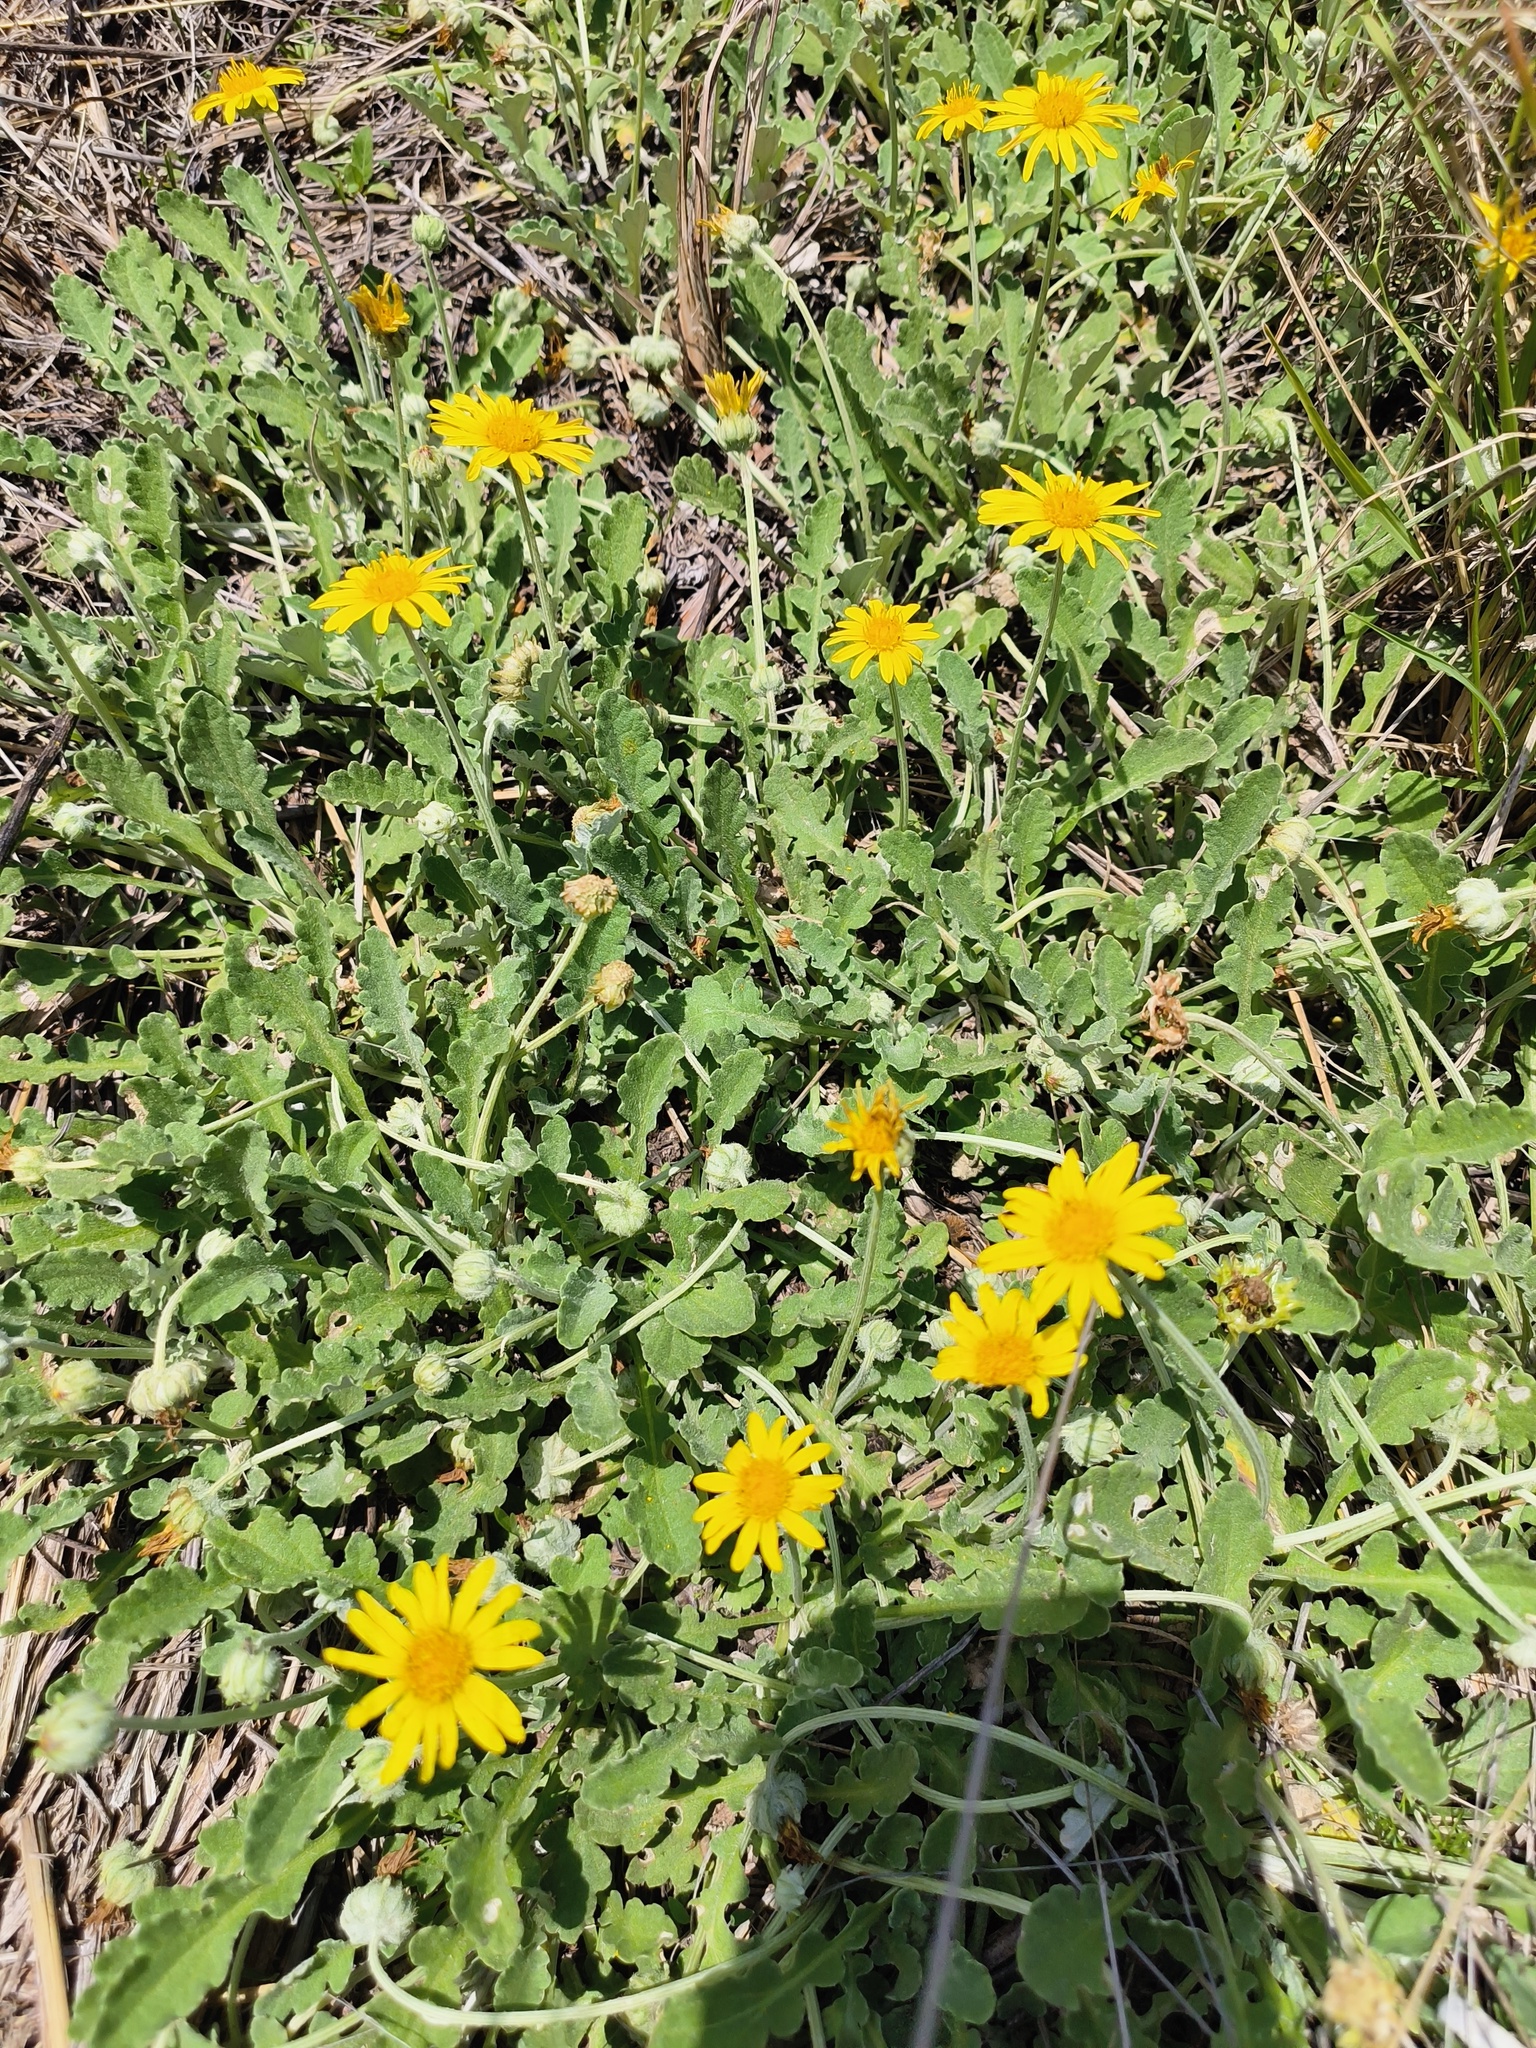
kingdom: Plantae
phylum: Tracheophyta
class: Magnoliopsida
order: Asterales
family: Asteraceae
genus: Arctotis
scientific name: Arctotis arctotoides
